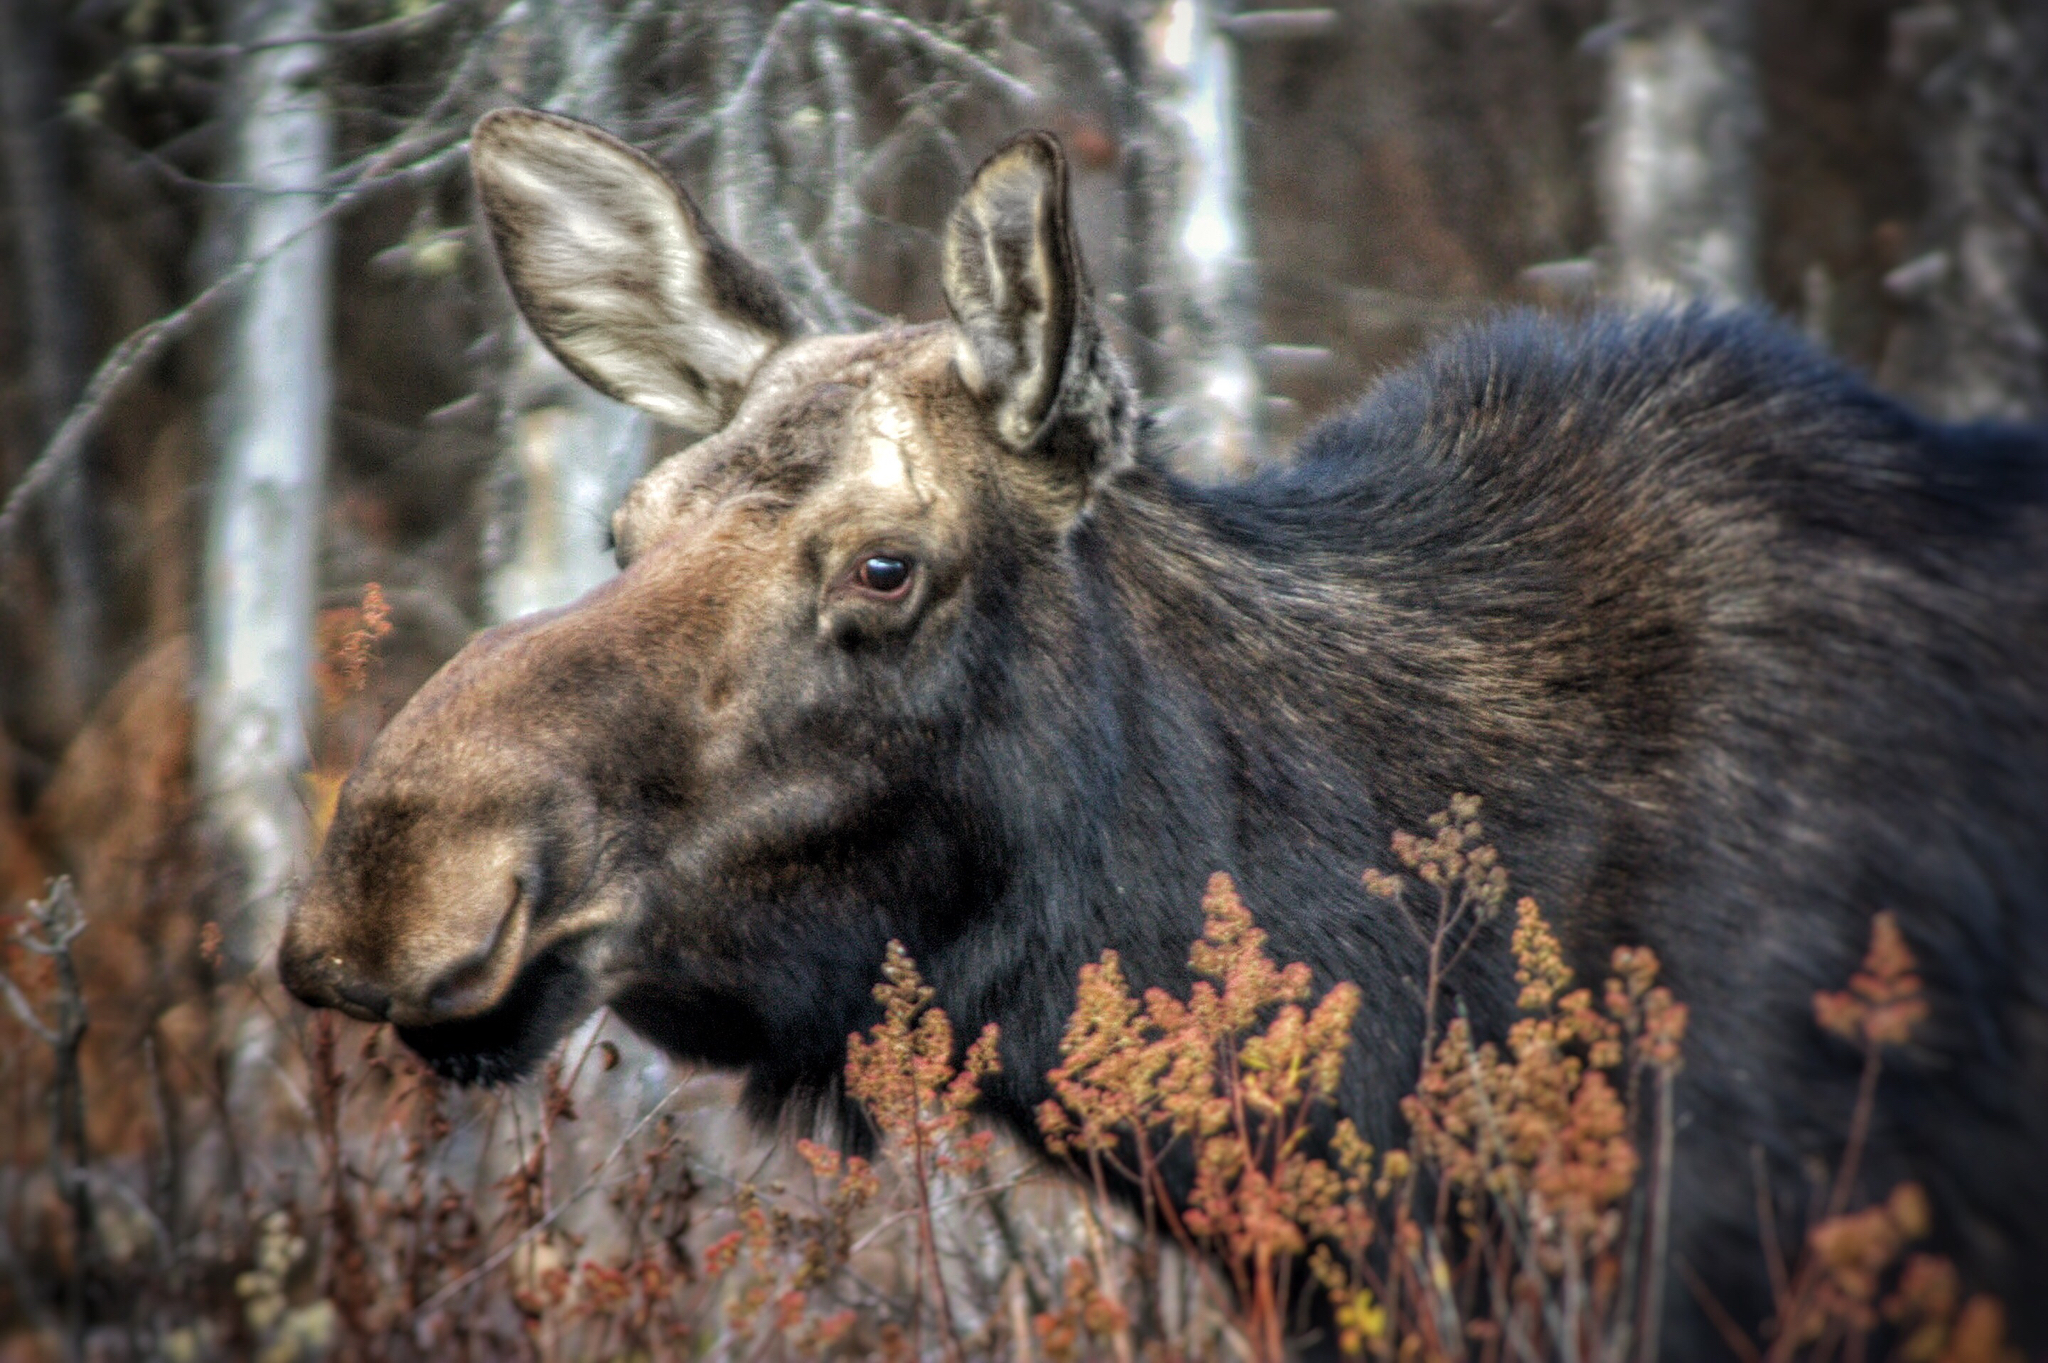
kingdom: Animalia
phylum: Chordata
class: Mammalia
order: Artiodactyla
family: Cervidae
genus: Alces
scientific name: Alces alces
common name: Moose
